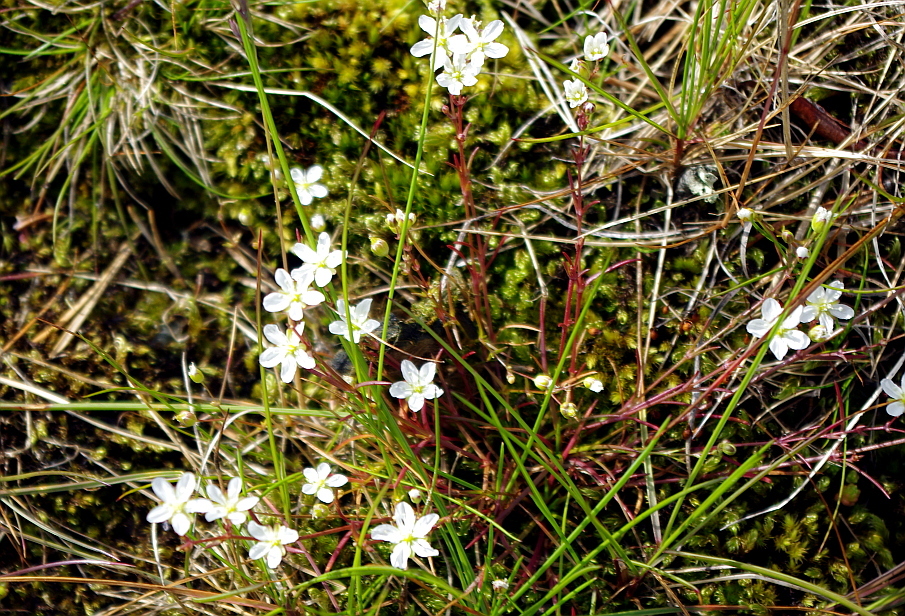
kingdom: Plantae
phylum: Tracheophyta
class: Magnoliopsida
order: Caryophyllales
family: Caryophyllaceae
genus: Sagina
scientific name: Sagina nodosa
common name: Knotted pearlwort
